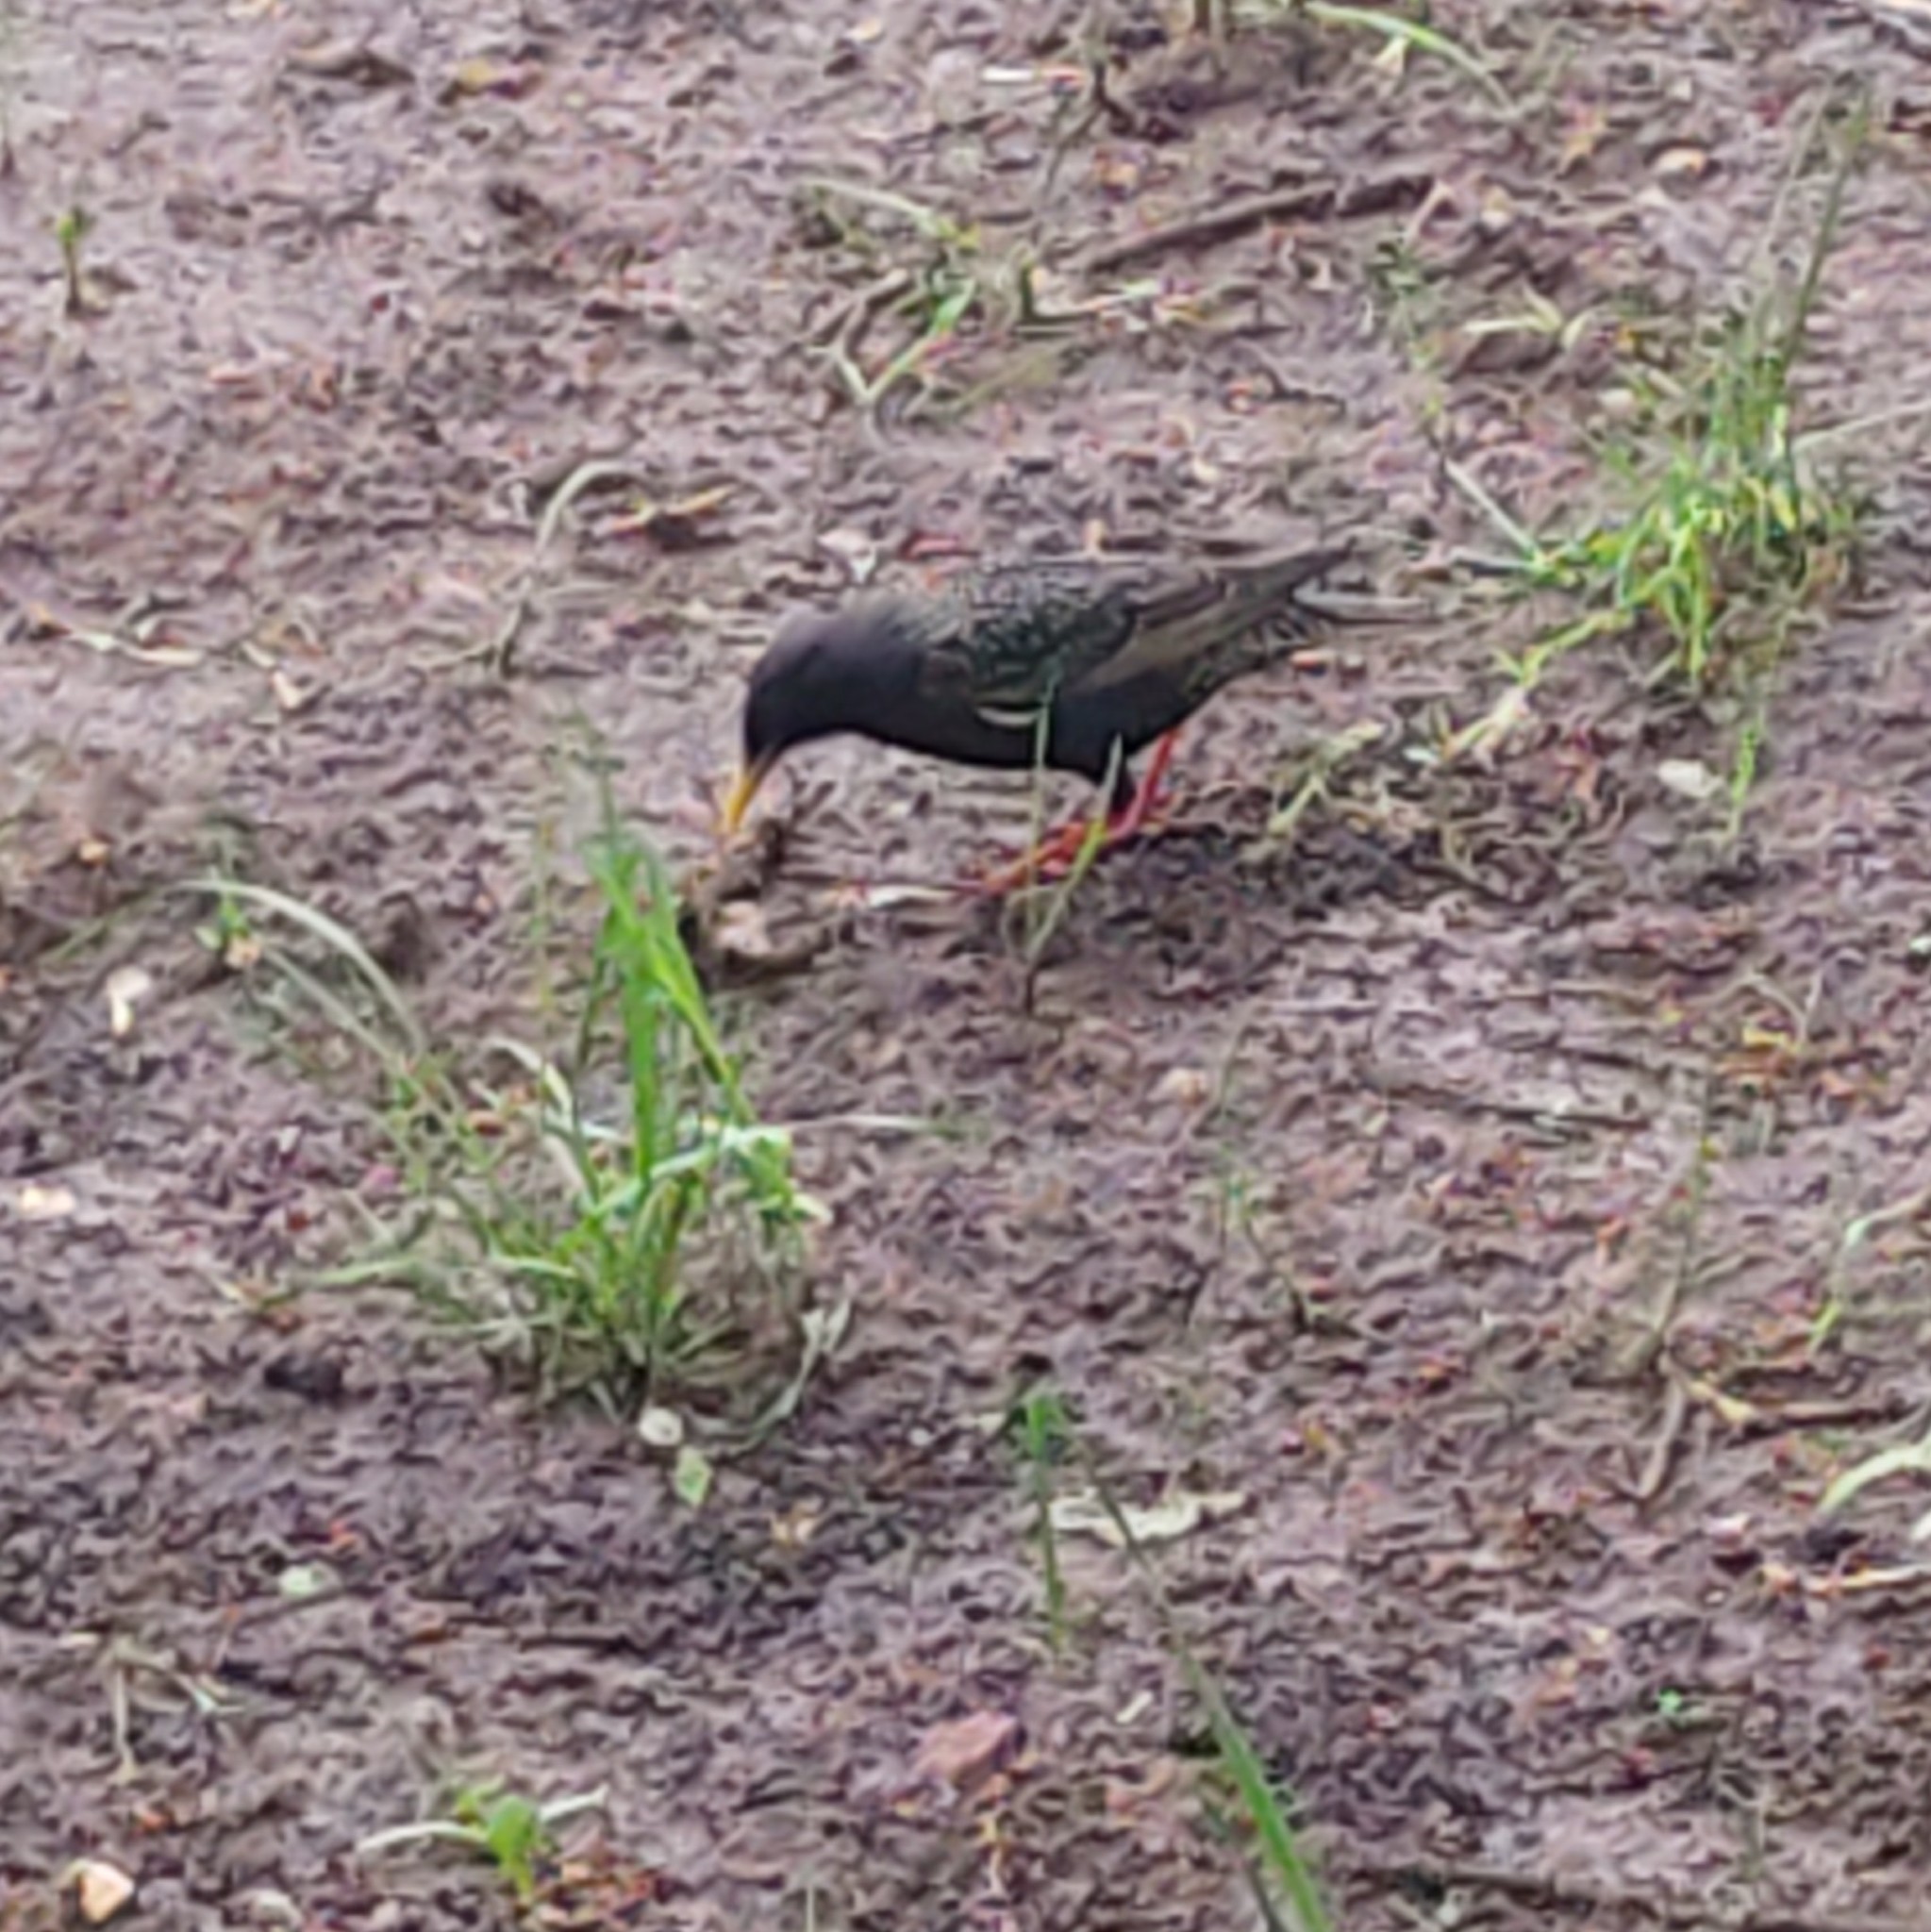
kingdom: Animalia
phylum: Chordata
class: Aves
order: Passeriformes
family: Sturnidae
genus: Sturnus
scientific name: Sturnus vulgaris
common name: Common starling
